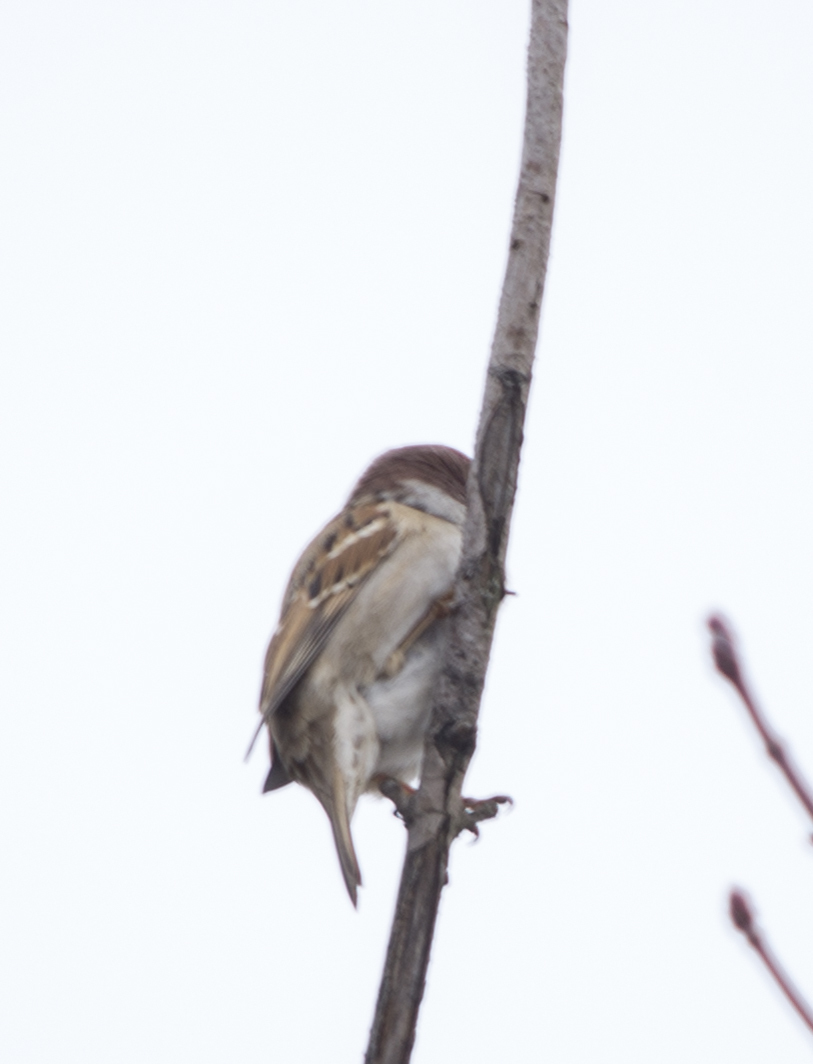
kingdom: Animalia
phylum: Chordata
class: Aves
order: Passeriformes
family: Passeridae
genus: Passer
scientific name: Passer montanus
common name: Eurasian tree sparrow
